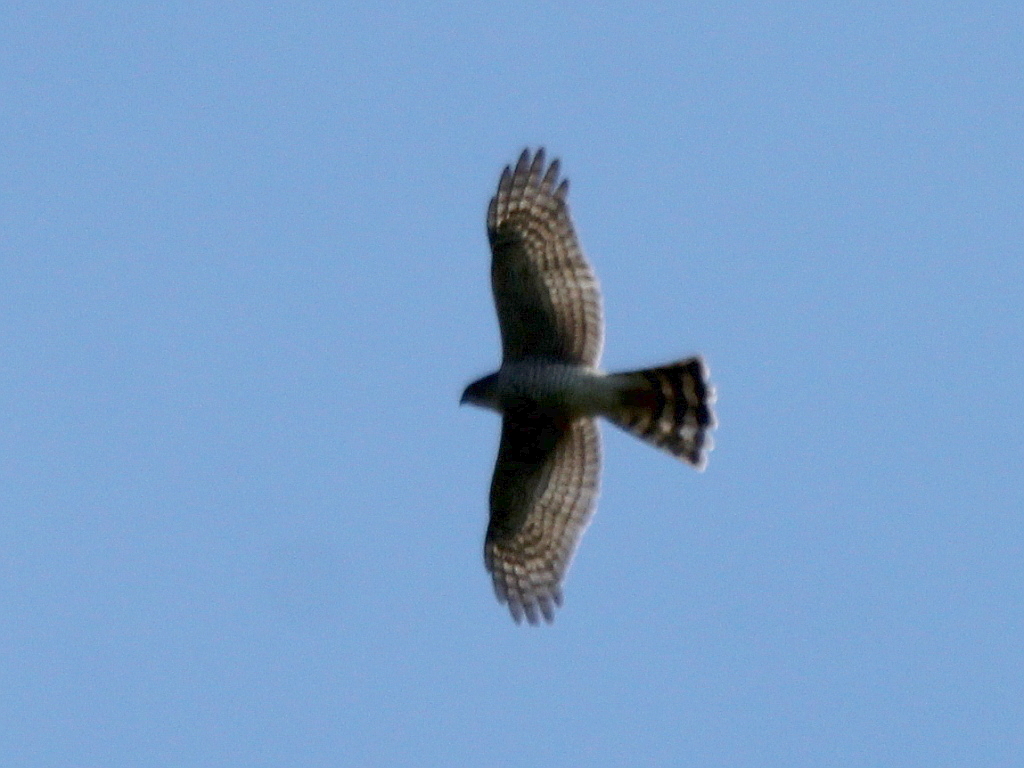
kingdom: Animalia
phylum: Chordata
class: Aves
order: Accipitriformes
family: Accipitridae
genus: Accipiter
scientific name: Accipiter nisus
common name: Eurasian sparrowhawk
